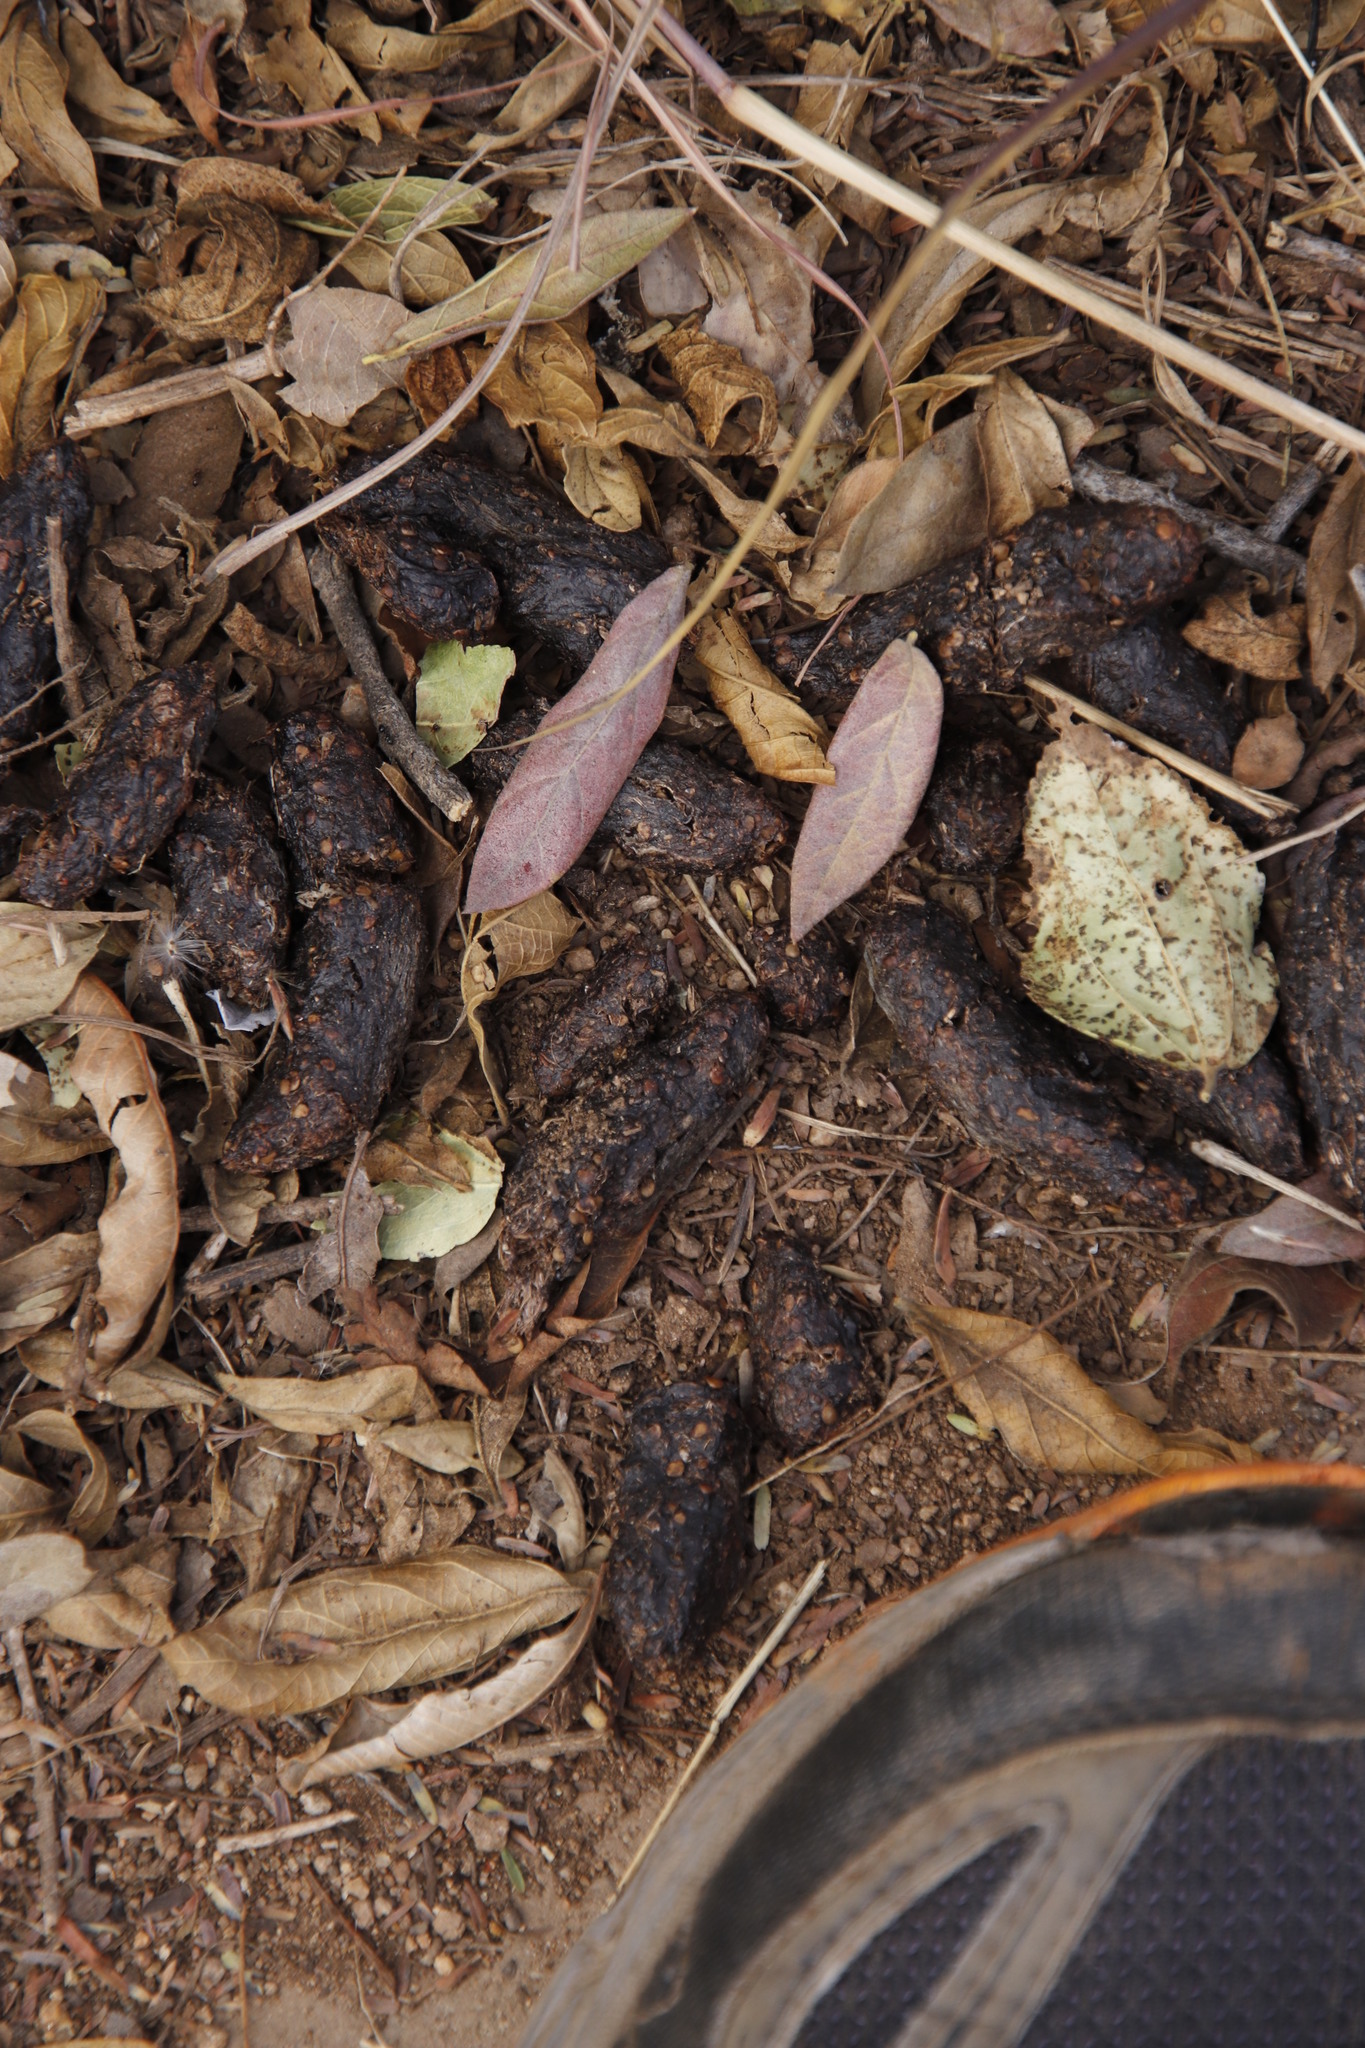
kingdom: Animalia
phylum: Chordata
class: Mammalia
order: Rodentia
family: Hystricidae
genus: Hystrix
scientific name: Hystrix africaeaustralis
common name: Cape porcupine
